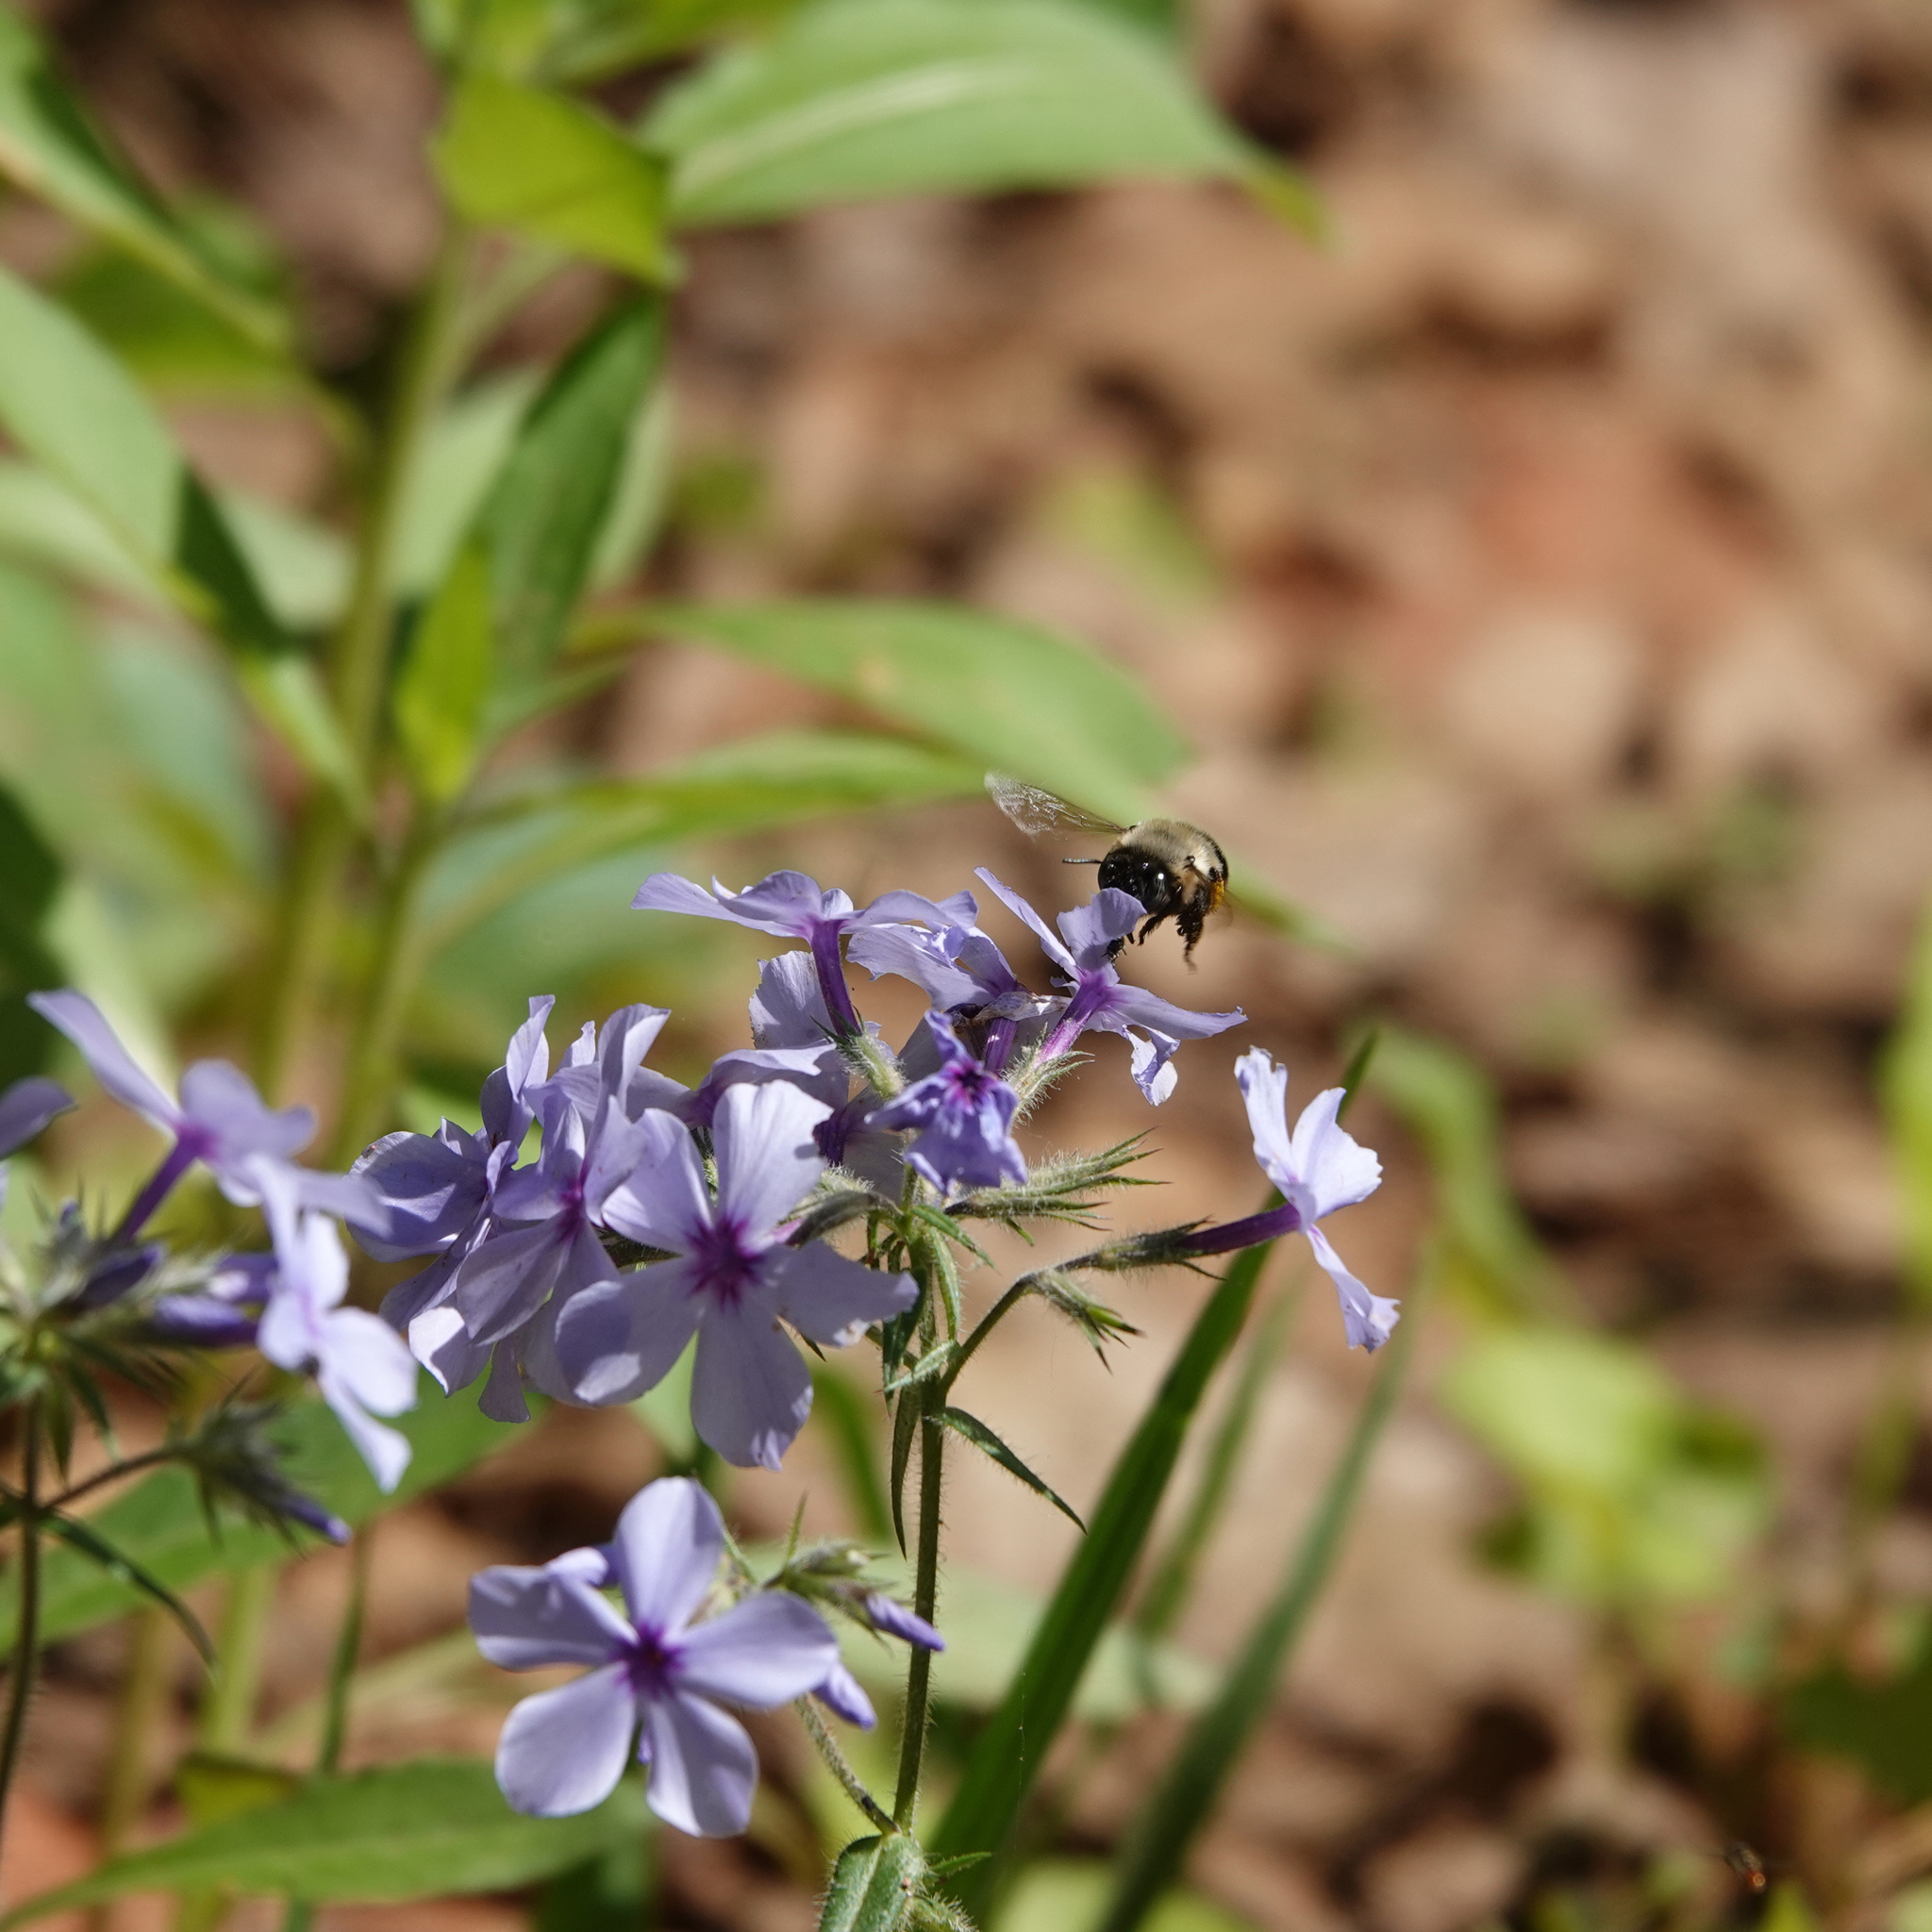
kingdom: Animalia
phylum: Arthropoda
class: Insecta
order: Hymenoptera
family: Apidae
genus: Anthophora
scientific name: Anthophora abrupta
